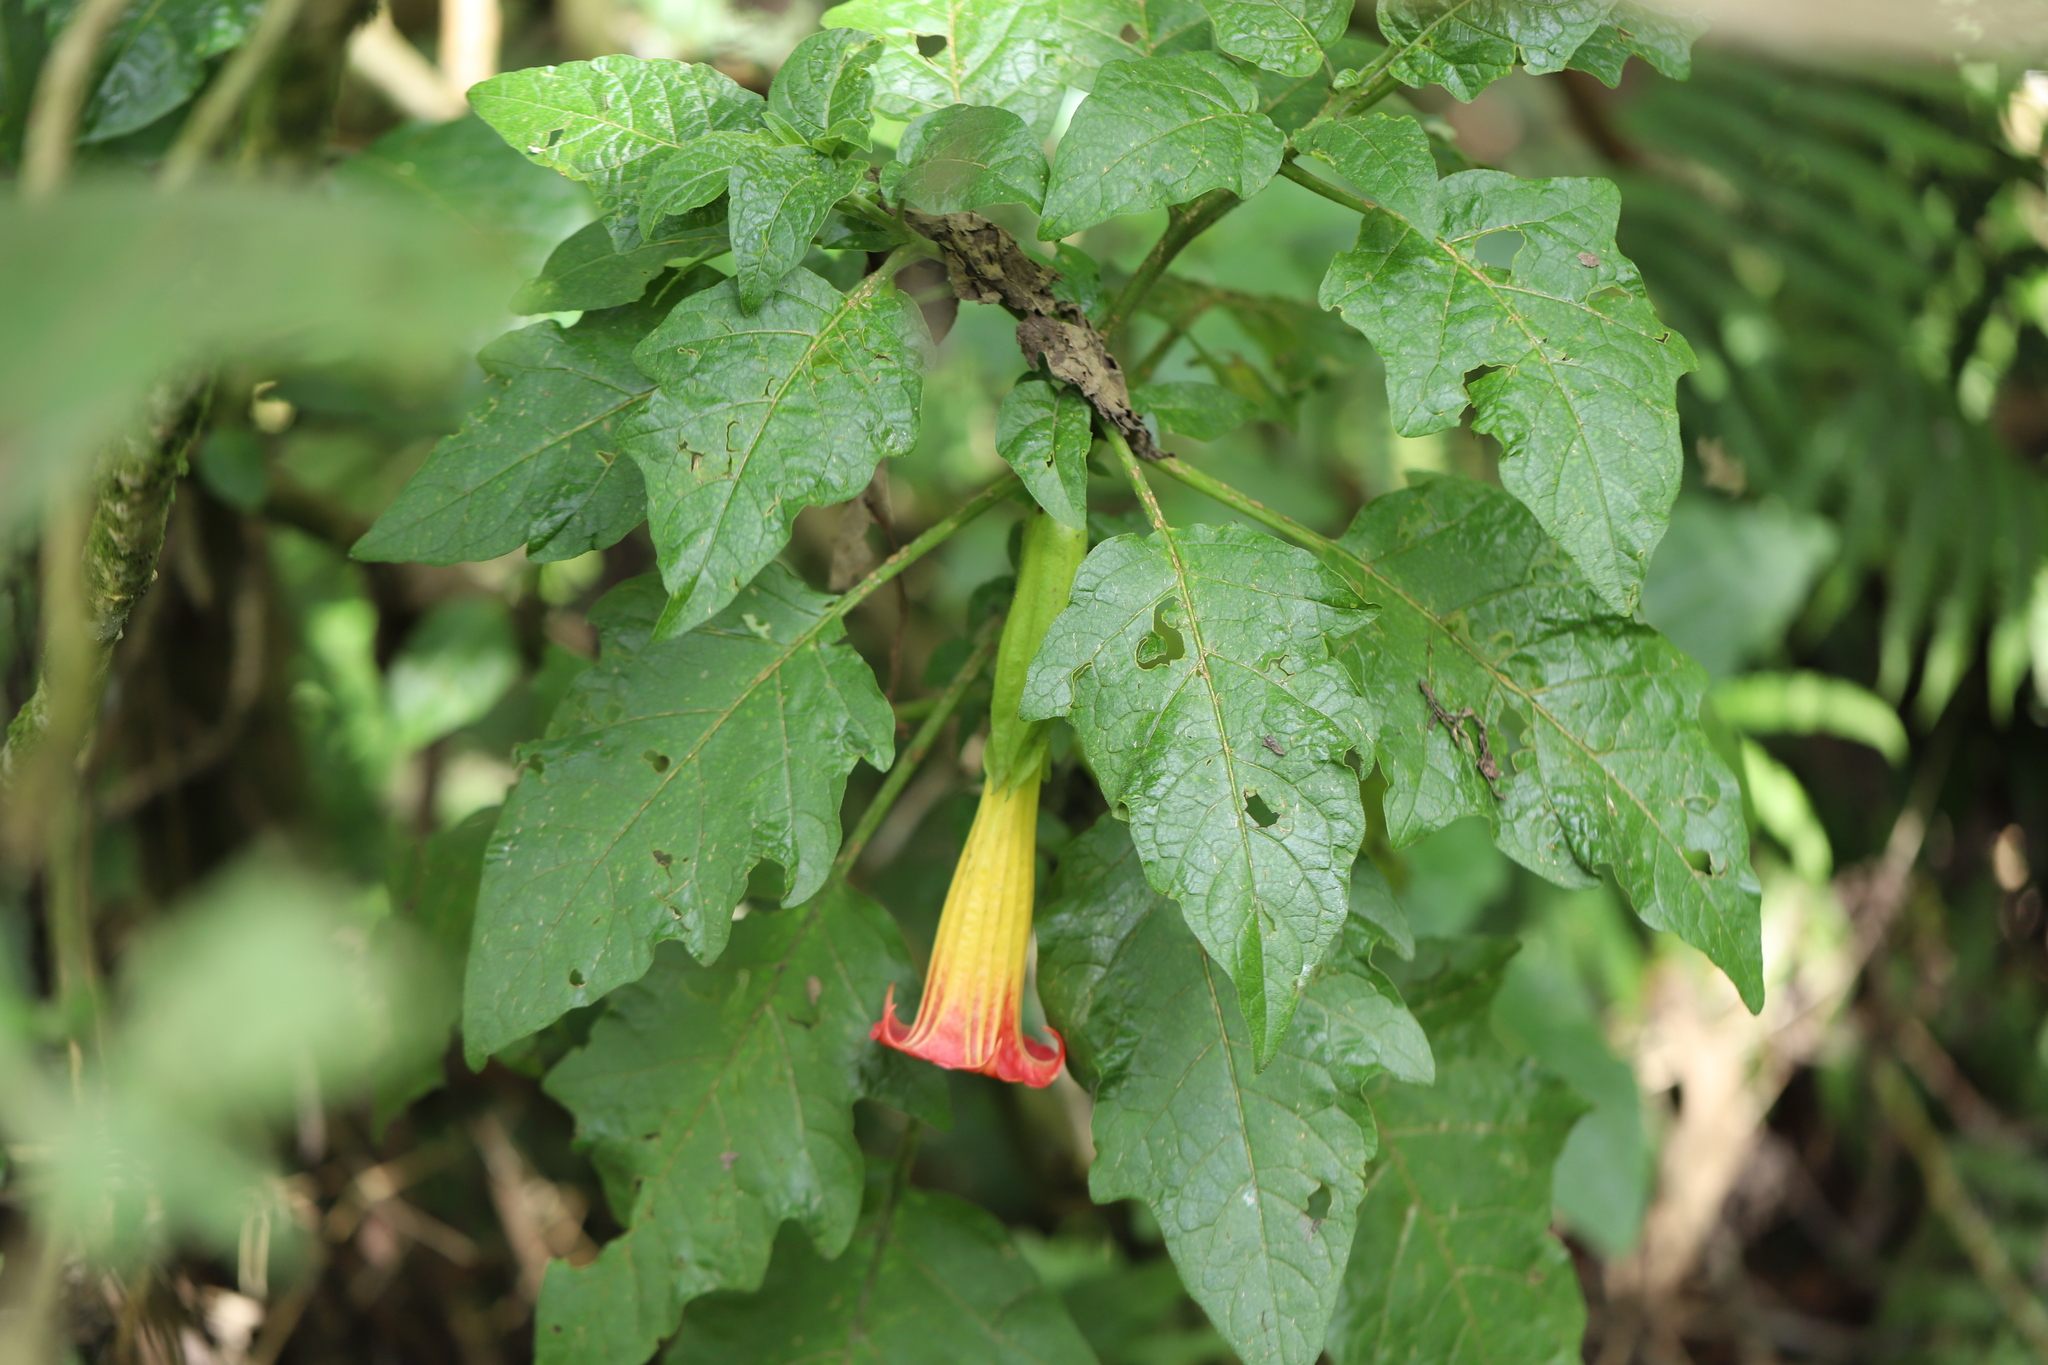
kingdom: Plantae
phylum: Tracheophyta
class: Magnoliopsida
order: Solanales
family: Solanaceae
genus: Brugmansia
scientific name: Brugmansia sanguinea
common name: Red floripontio
